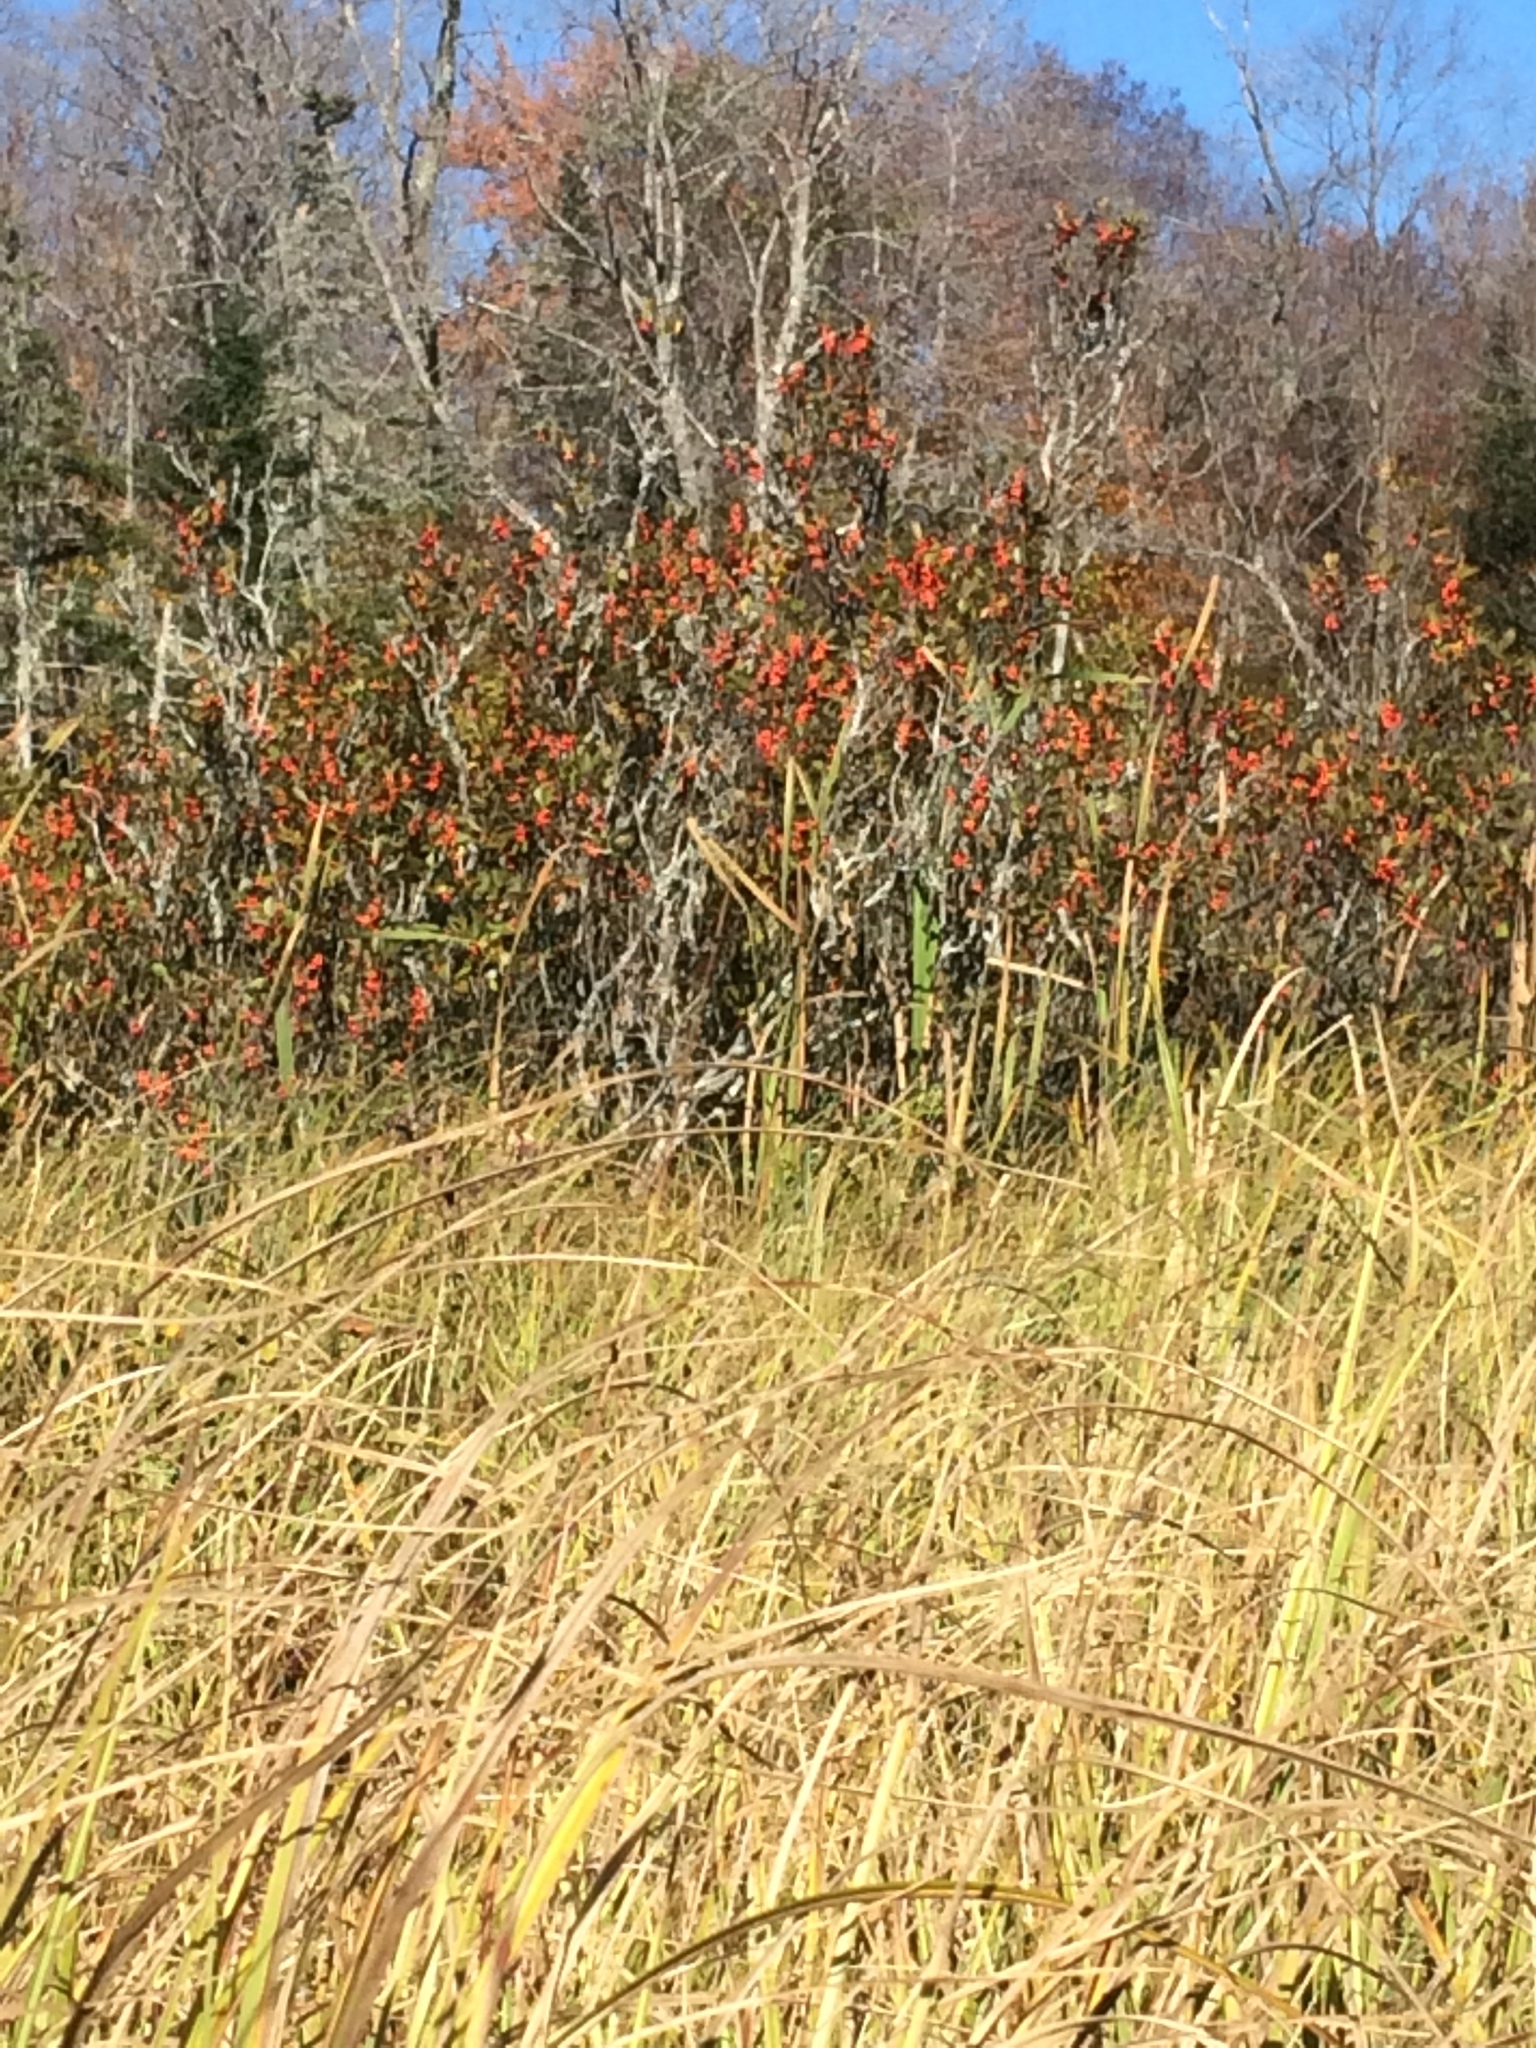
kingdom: Plantae
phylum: Tracheophyta
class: Magnoliopsida
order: Aquifoliales
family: Aquifoliaceae
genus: Ilex
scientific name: Ilex verticillata
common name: Virginia winterberry
